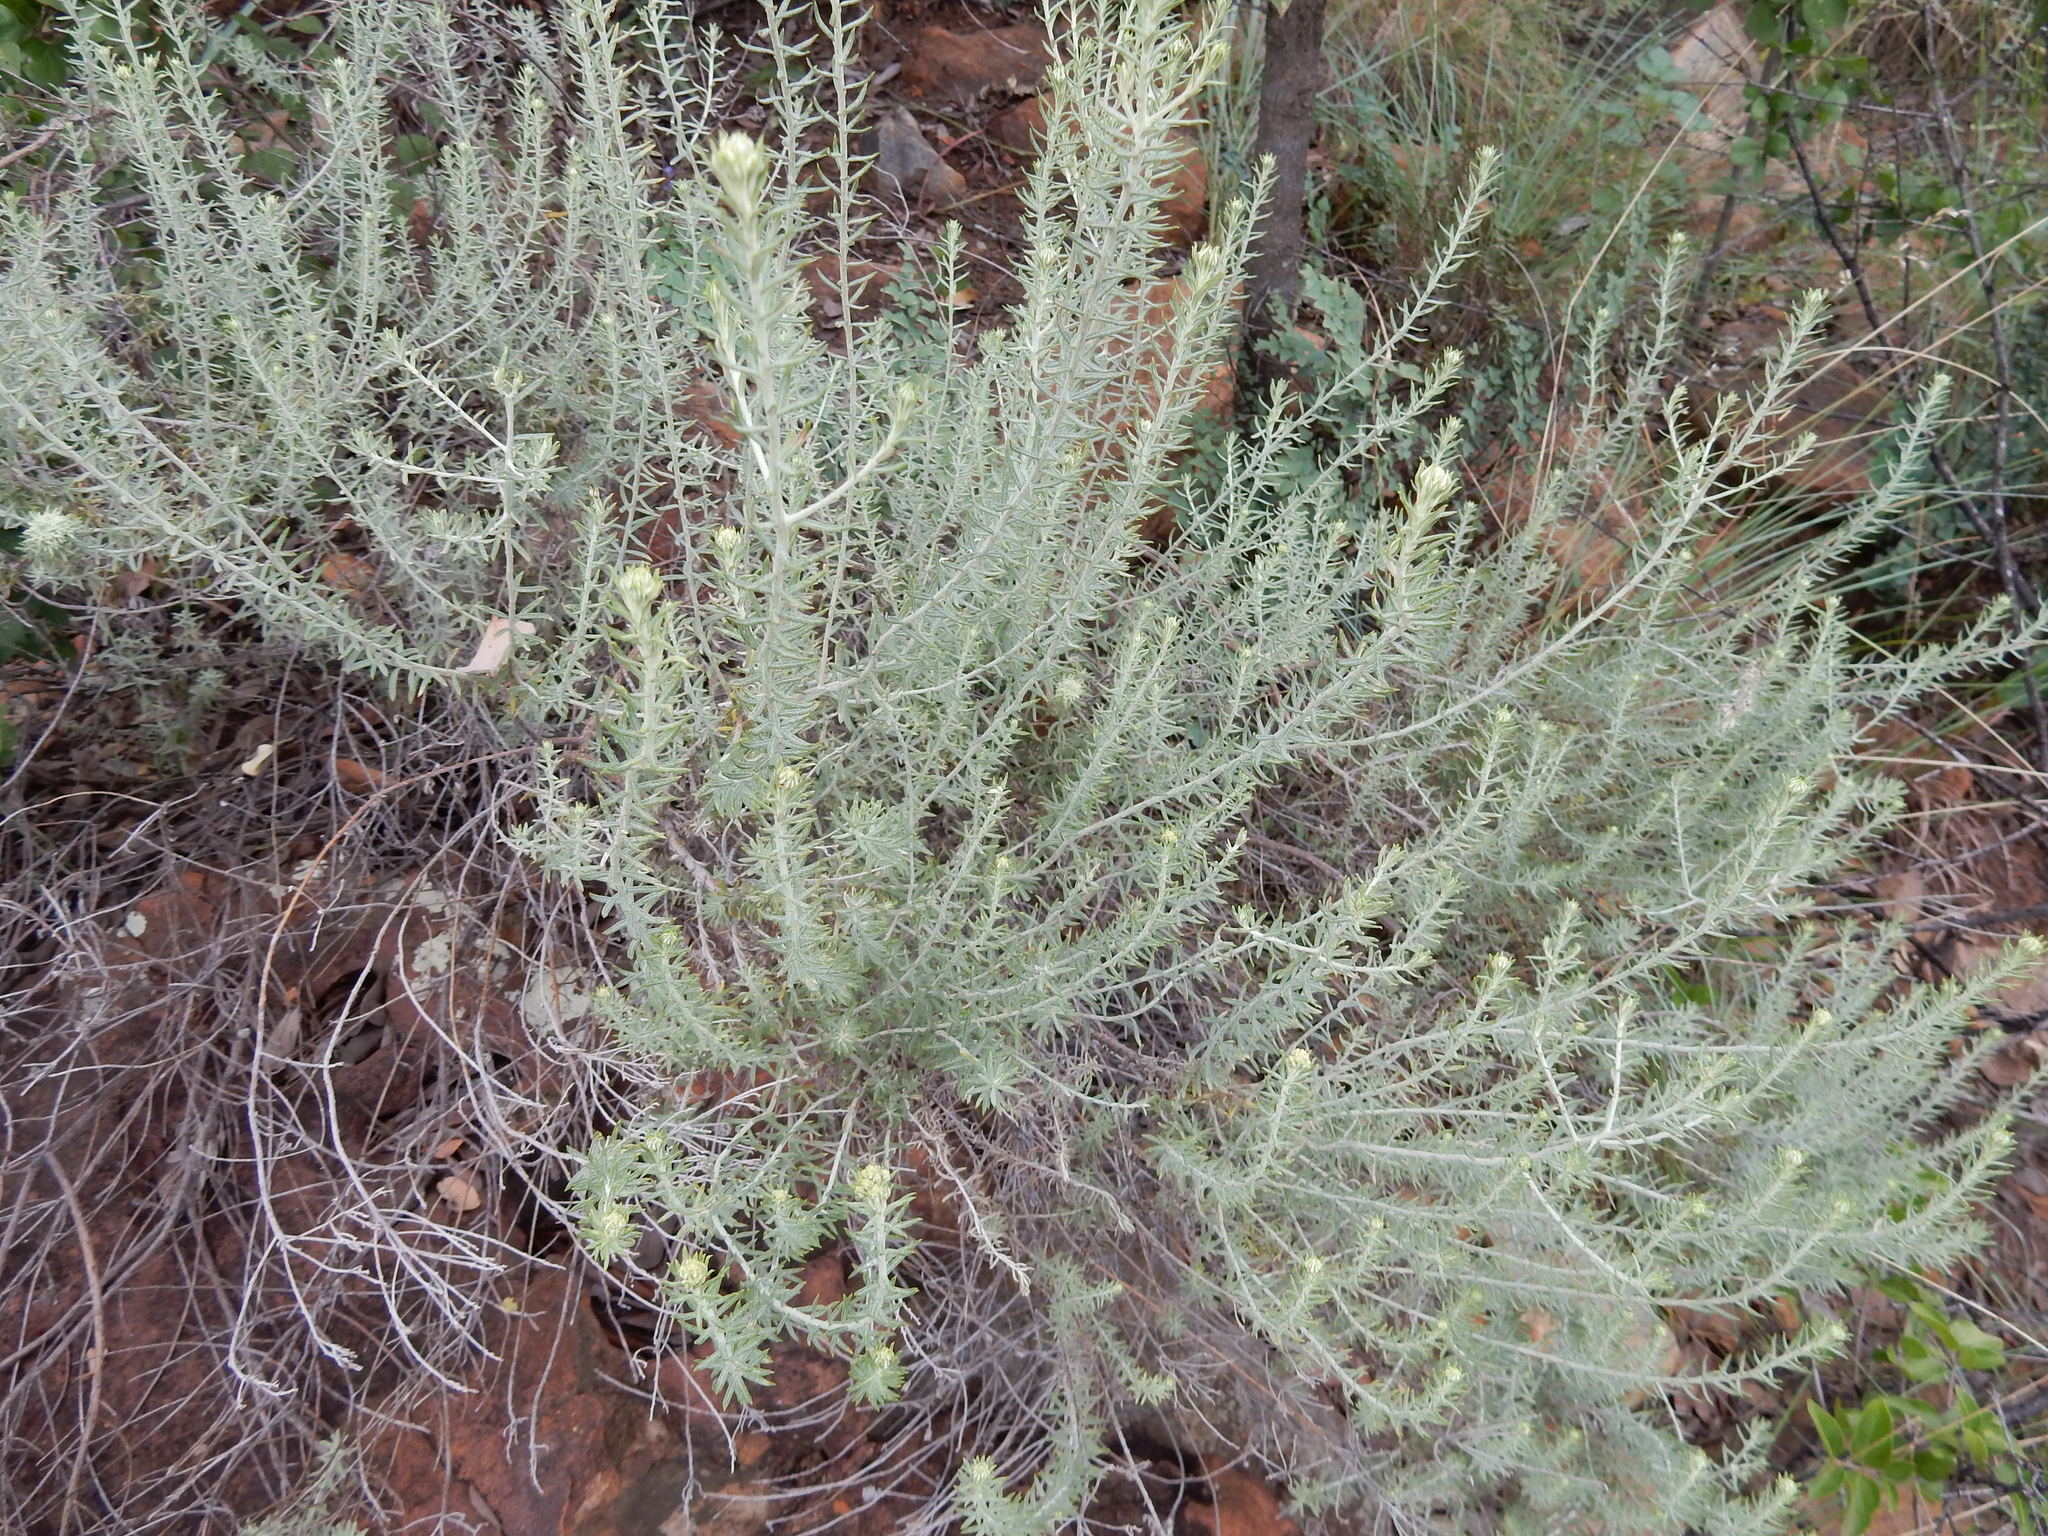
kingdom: Plantae
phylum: Tracheophyta
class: Magnoliopsida
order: Asterales
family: Asteraceae
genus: Helichrysum
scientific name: Helichrysum kraussii
